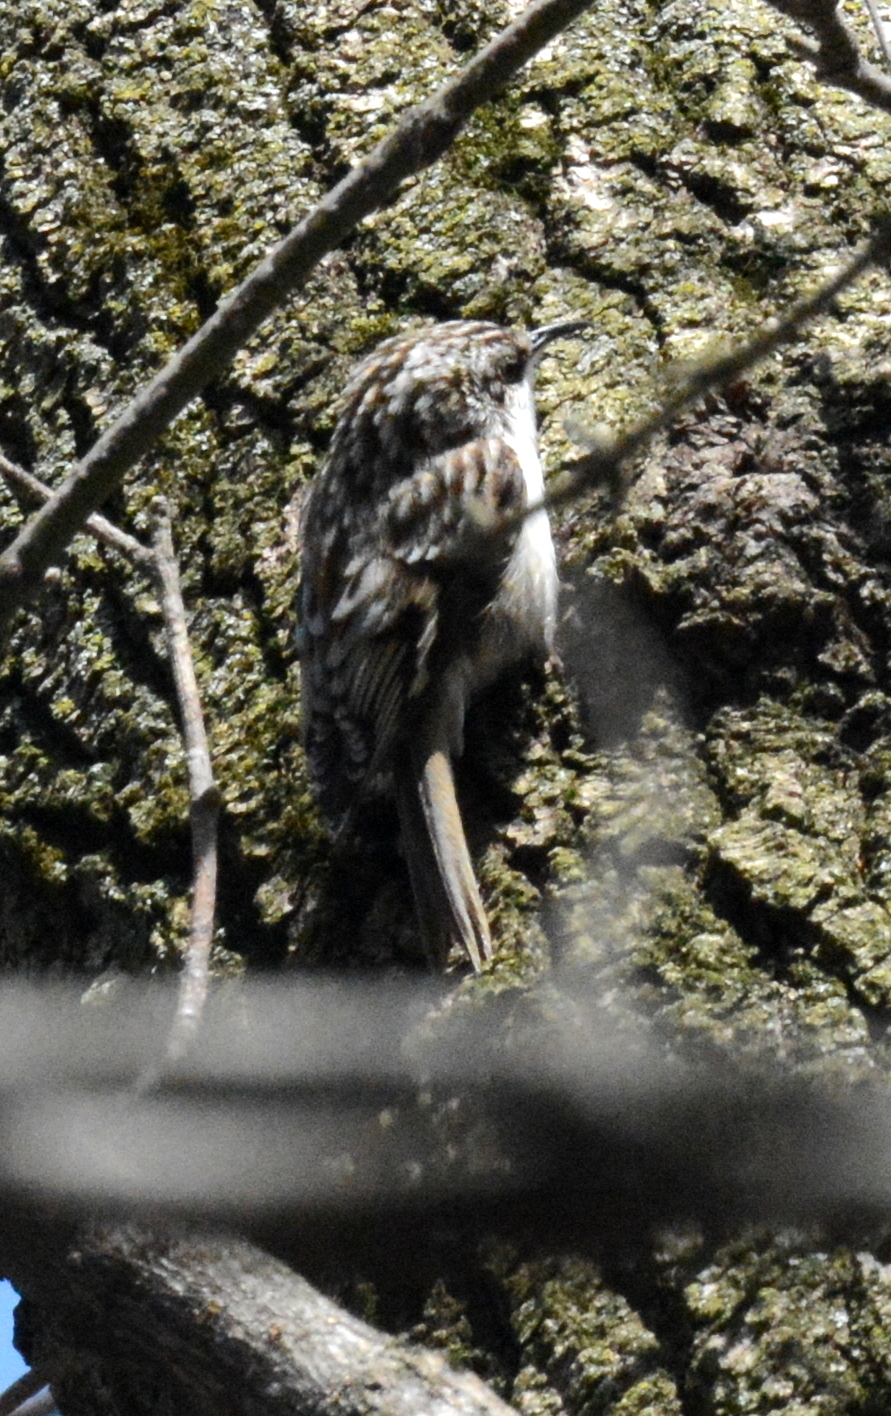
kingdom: Animalia
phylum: Chordata
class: Aves
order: Passeriformes
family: Certhiidae
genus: Certhia
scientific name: Certhia americana
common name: Brown creeper
